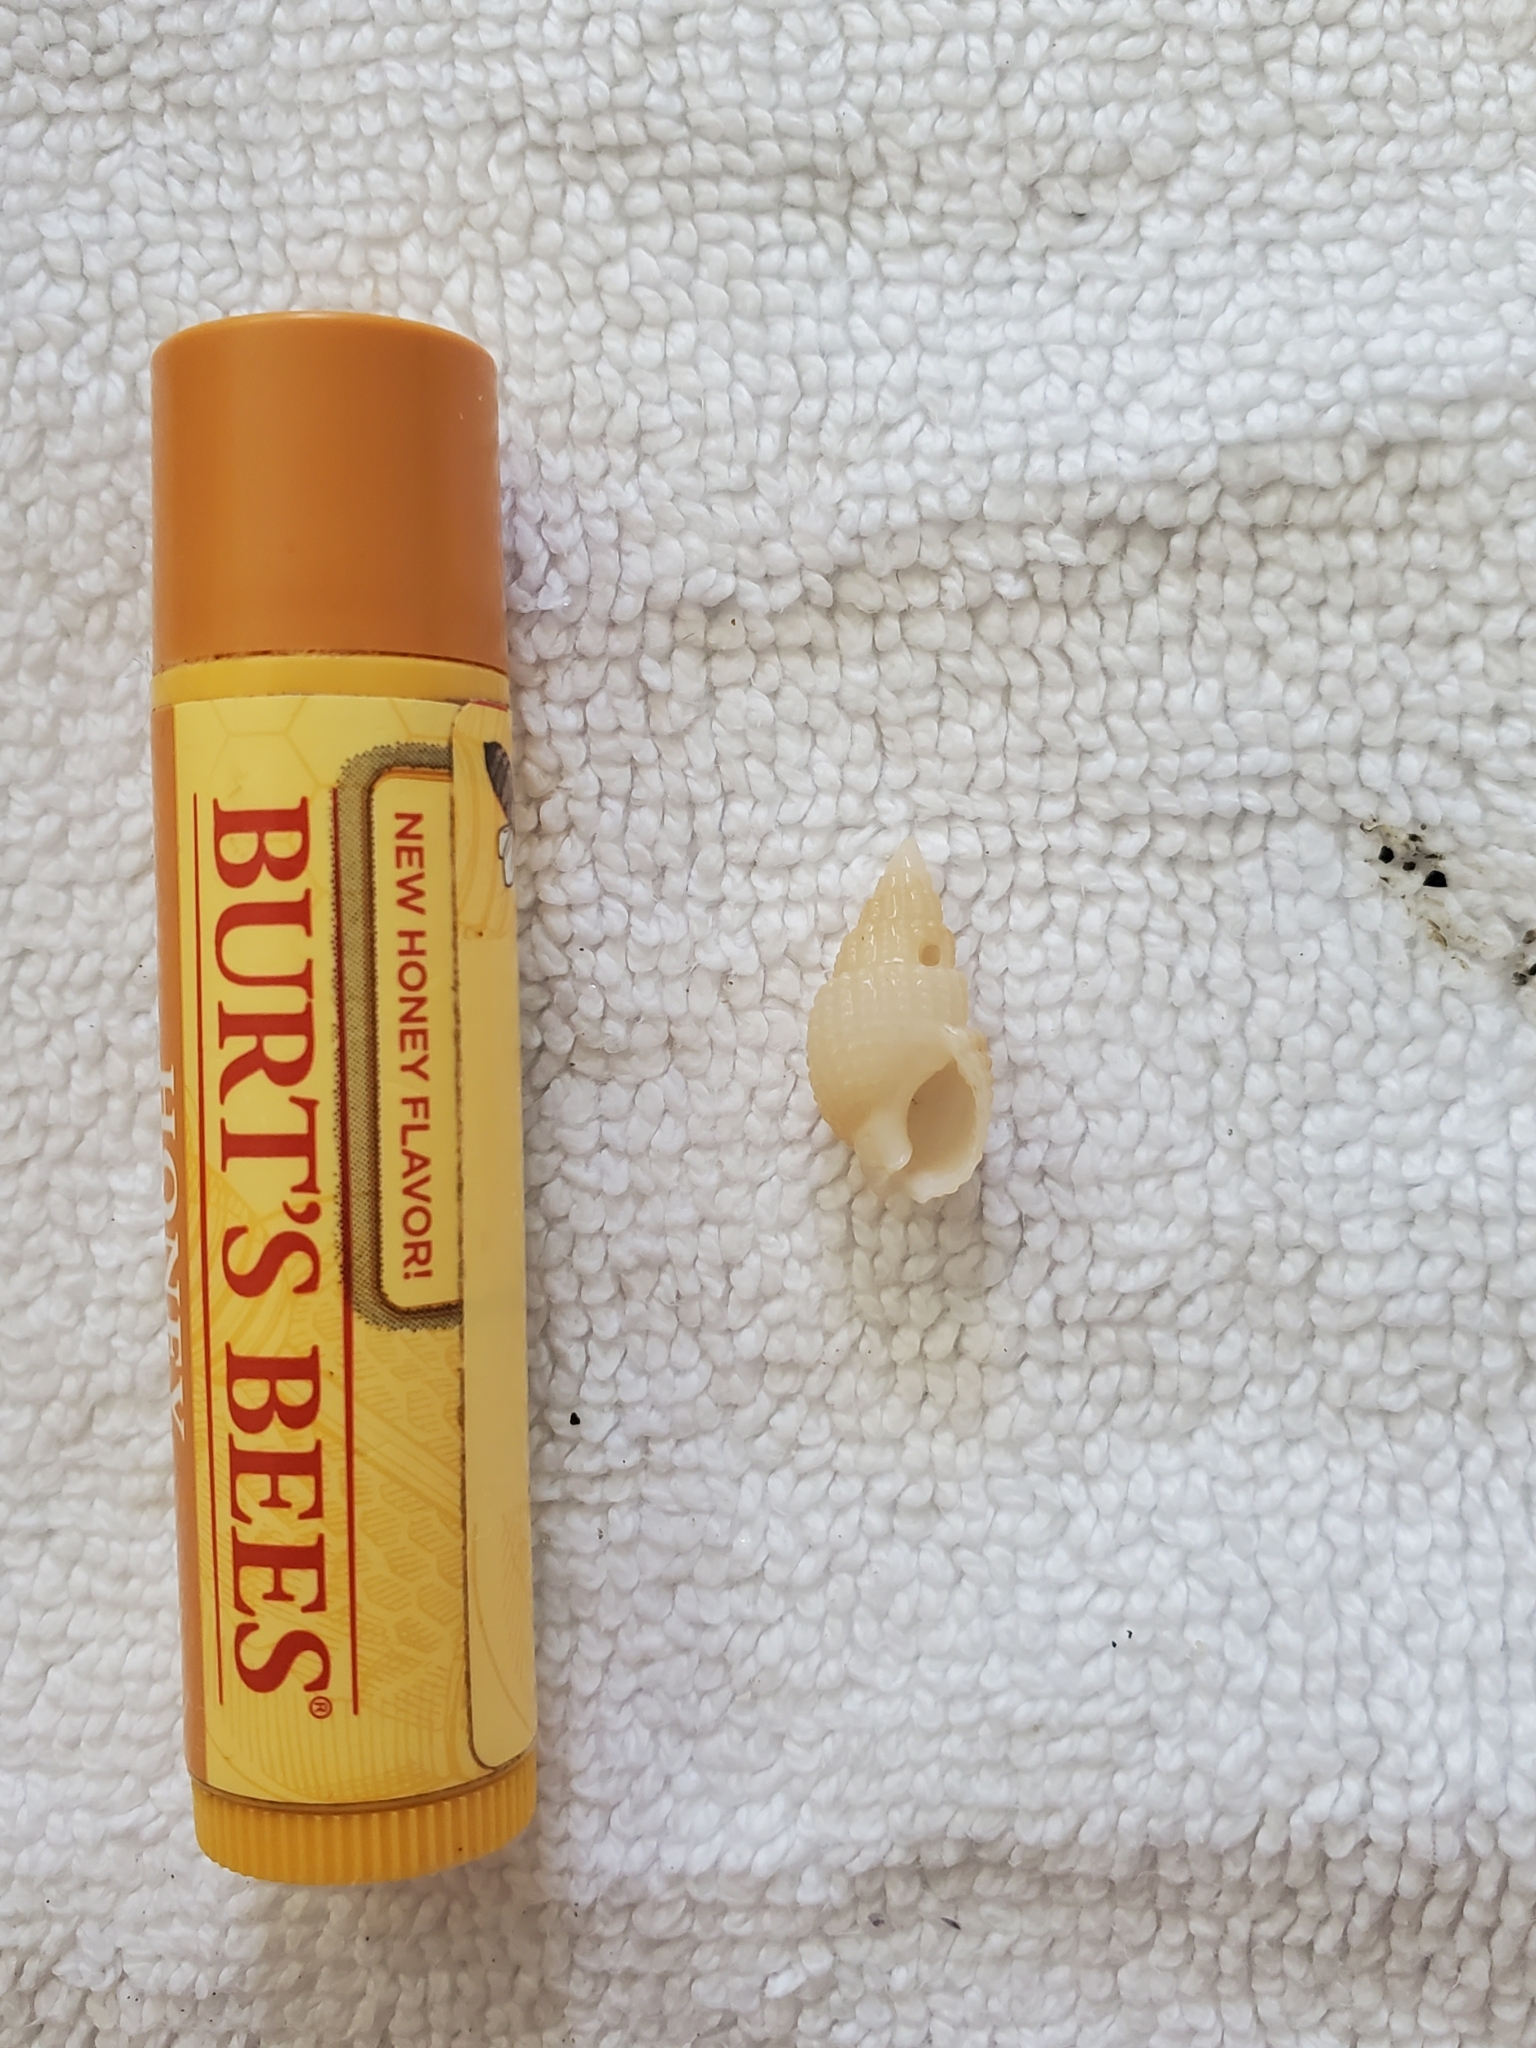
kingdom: Animalia
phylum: Mollusca
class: Gastropoda
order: Neogastropoda
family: Nassariidae
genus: Ilyanassa
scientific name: Ilyanassa trivittata
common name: Three-line mudsnail
